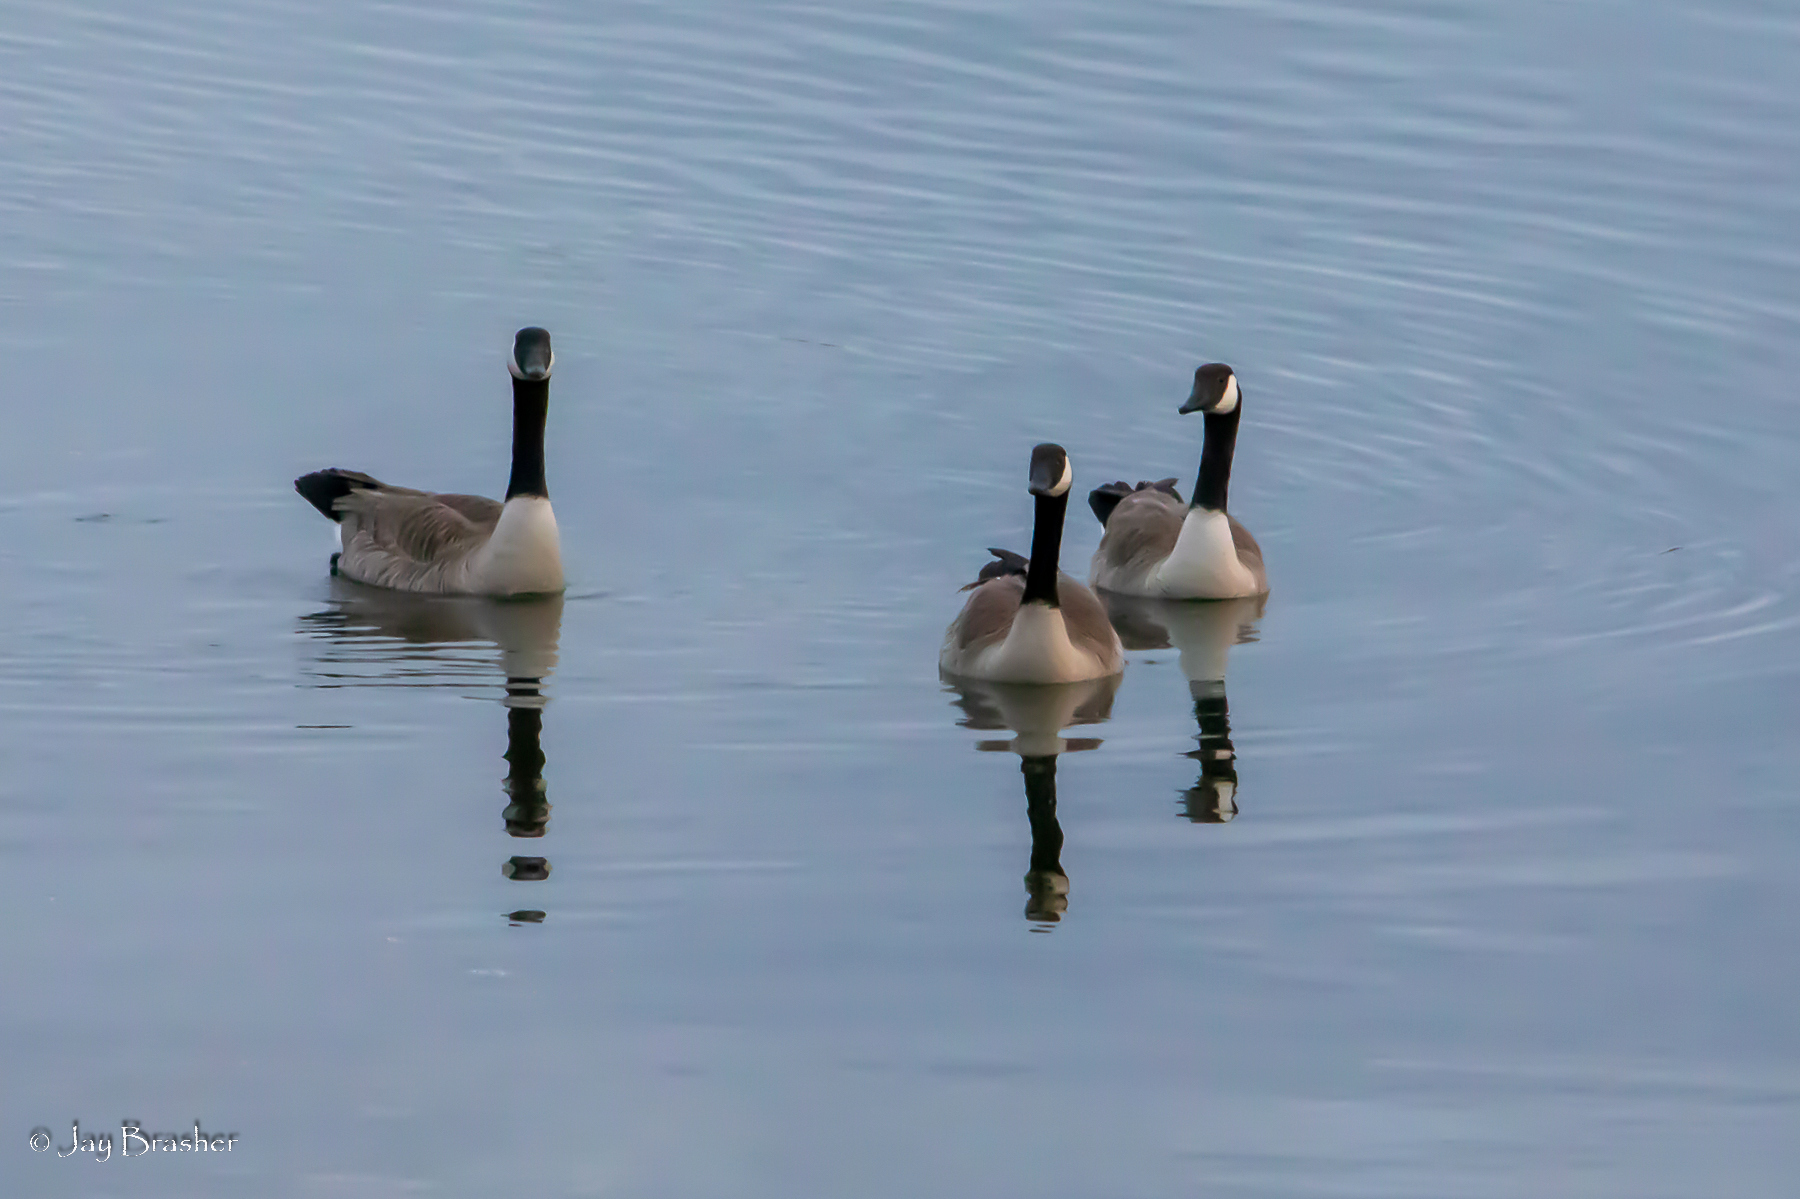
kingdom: Animalia
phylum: Chordata
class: Aves
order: Anseriformes
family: Anatidae
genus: Branta
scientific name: Branta canadensis
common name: Canada goose
